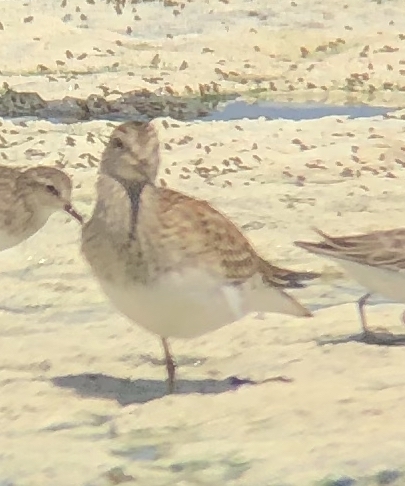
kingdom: Animalia
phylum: Chordata
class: Aves
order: Charadriiformes
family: Scolopacidae
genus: Calidris
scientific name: Calidris melanotos
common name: Pectoral sandpiper
